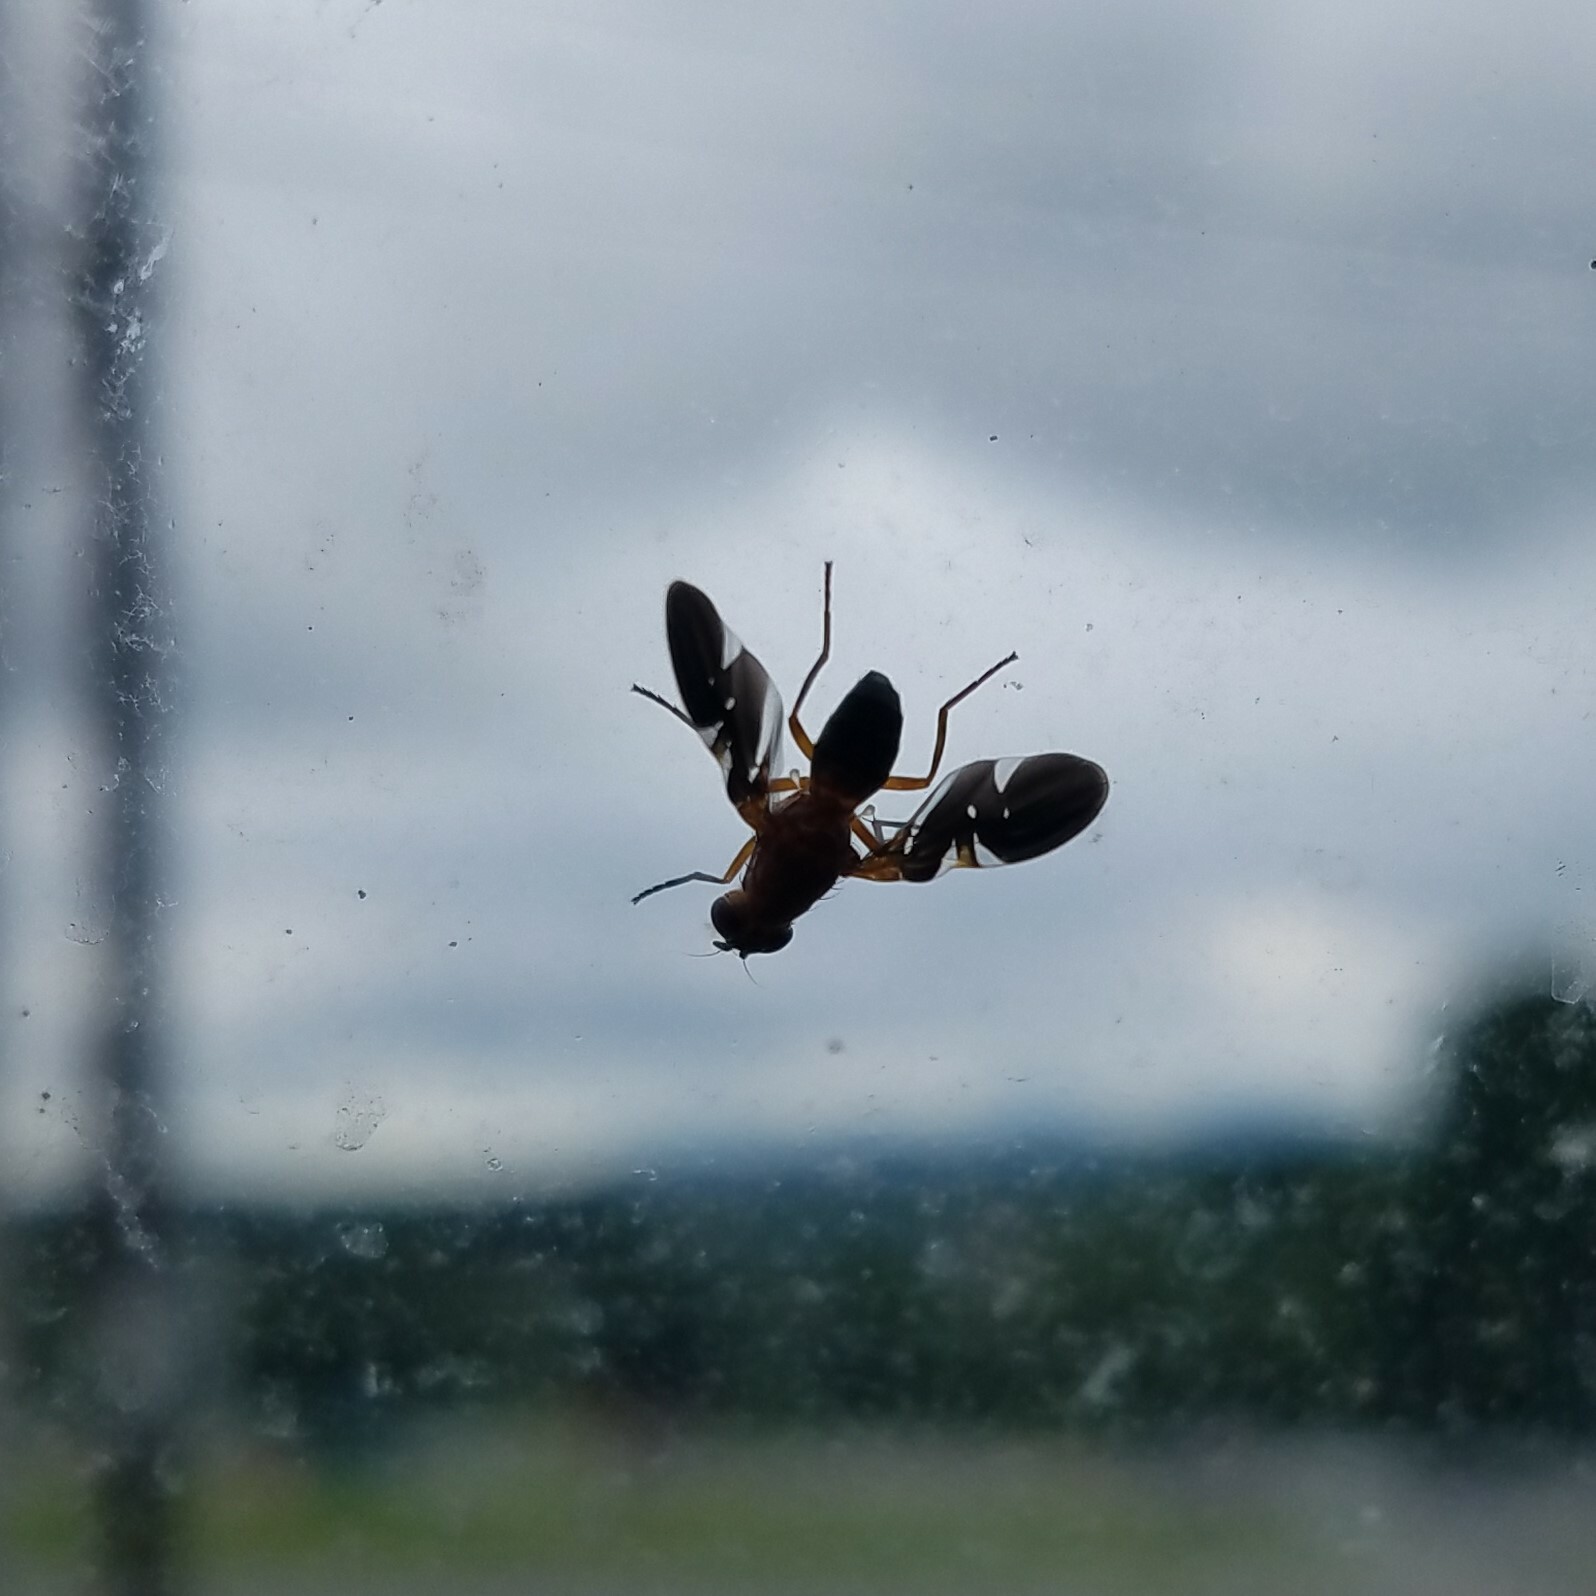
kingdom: Animalia
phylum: Arthropoda
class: Insecta
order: Diptera
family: Ulidiidae
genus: Delphinia
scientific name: Delphinia picta
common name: Common picture-winged fly
